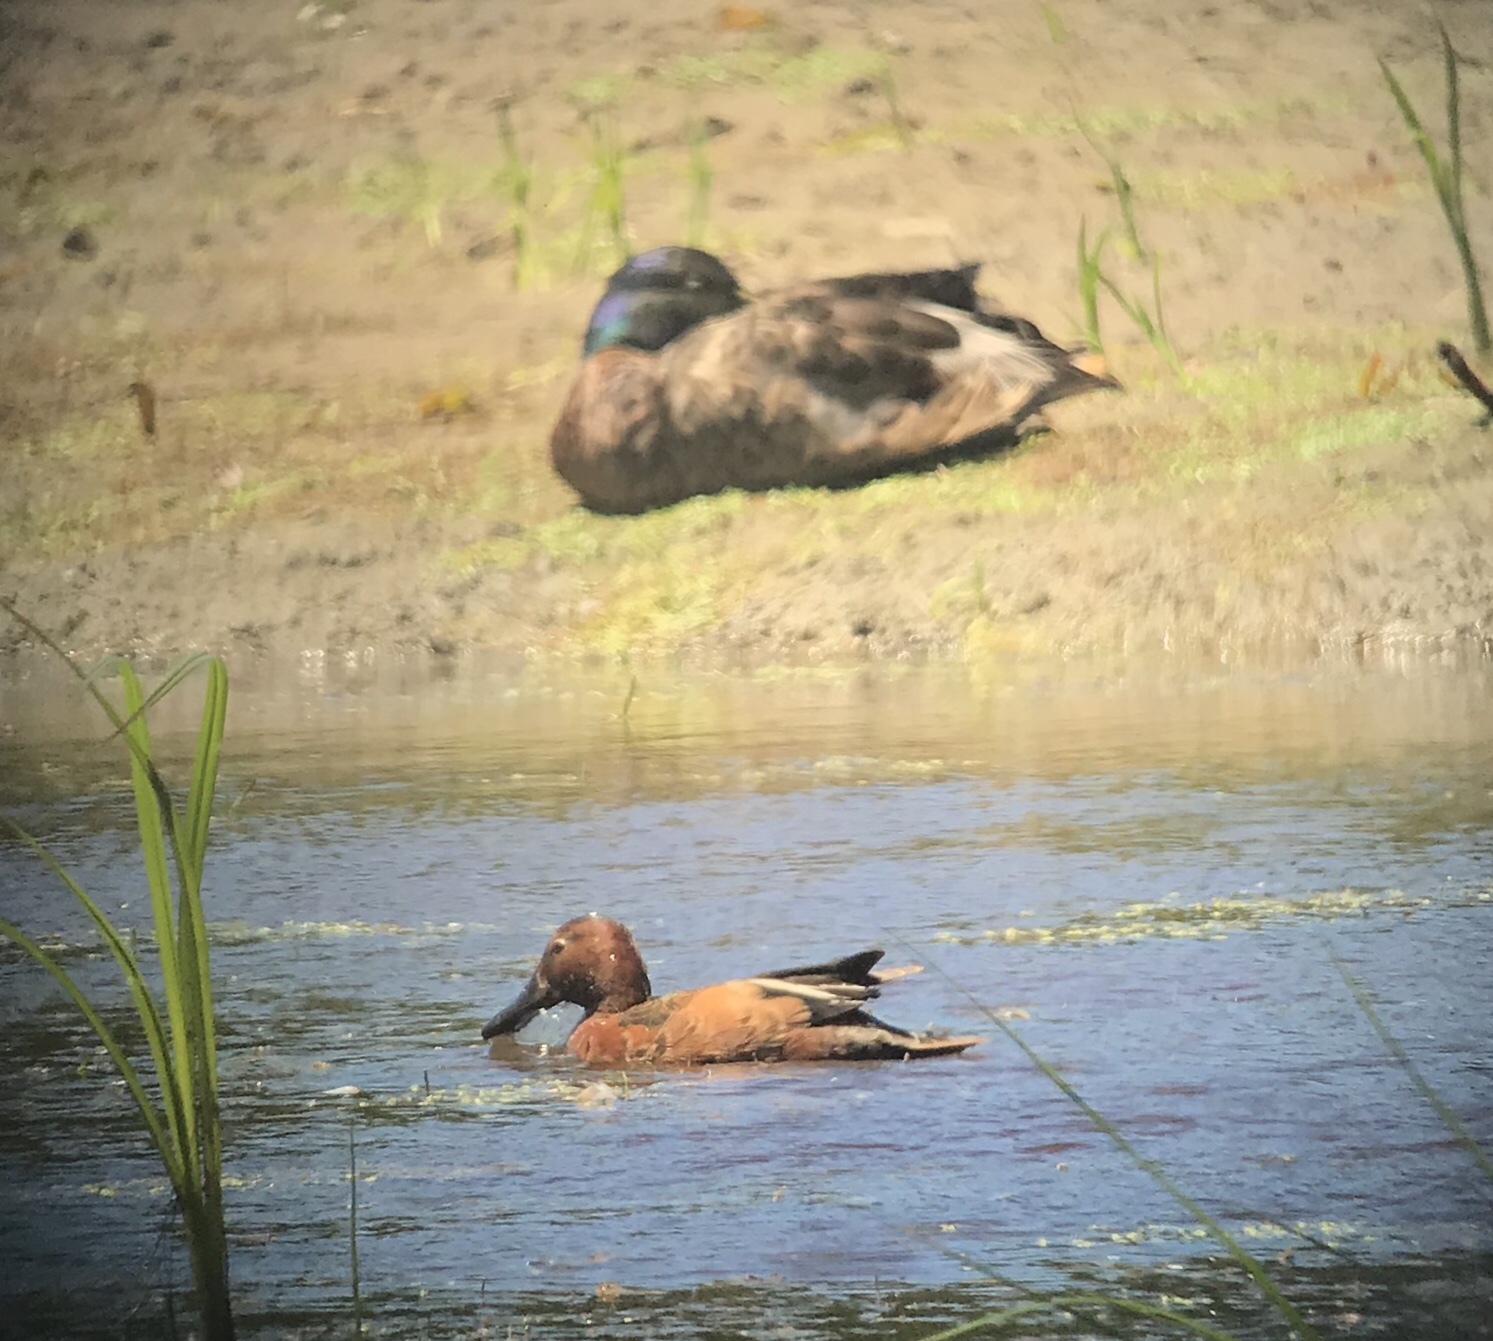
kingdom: Animalia
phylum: Chordata
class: Aves
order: Anseriformes
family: Anatidae
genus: Spatula
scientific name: Spatula cyanoptera
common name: Cinnamon teal
